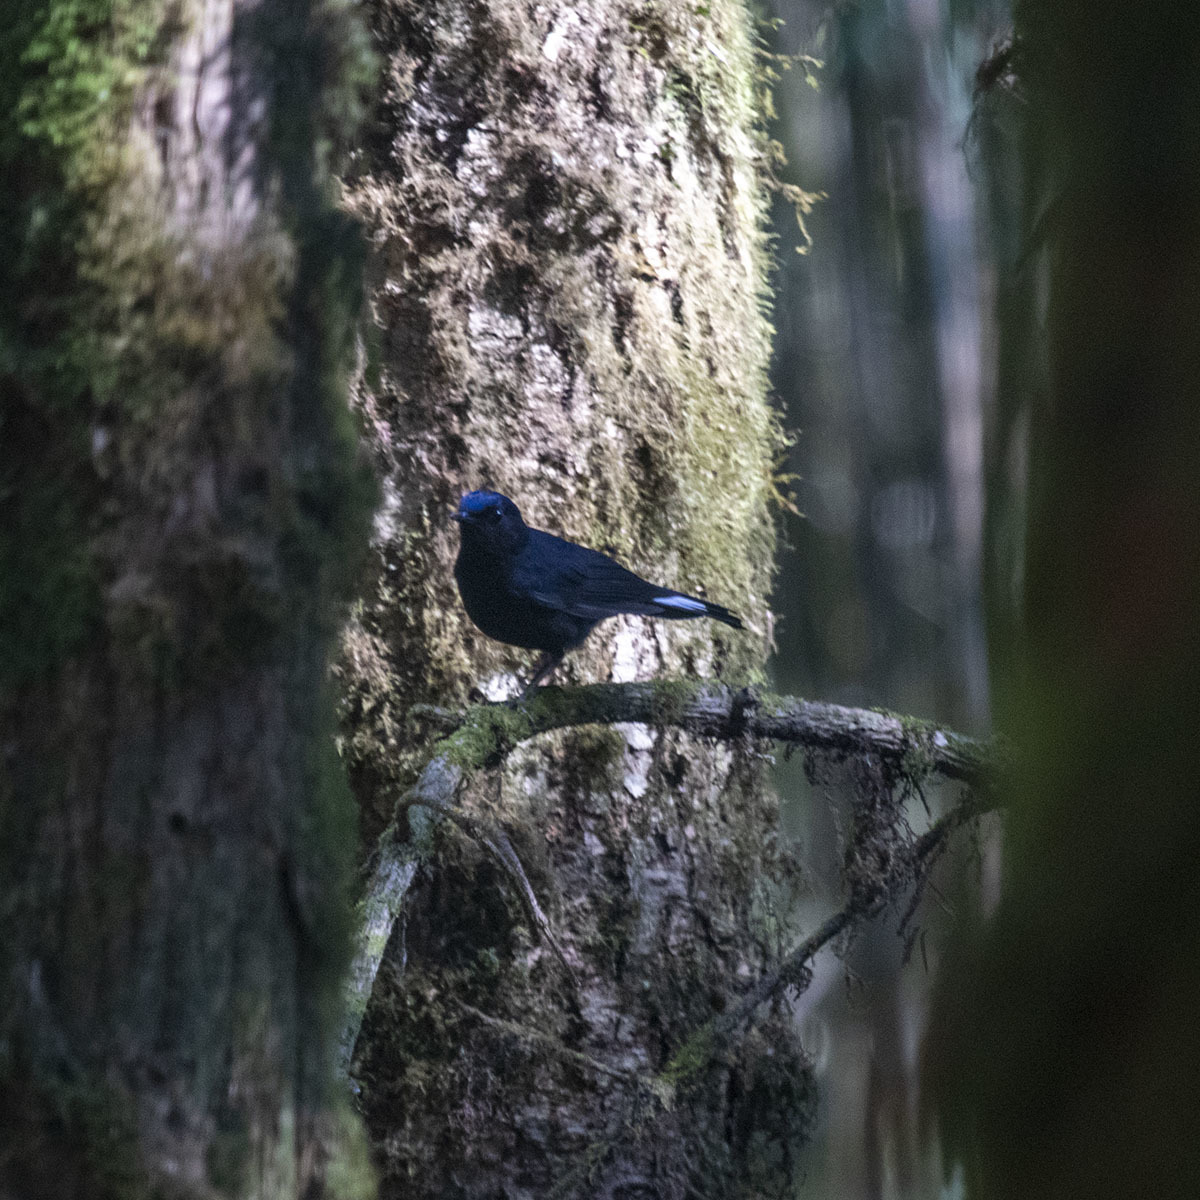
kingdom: Animalia
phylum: Chordata
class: Aves
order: Passeriformes
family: Muscicapidae
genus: Myiomela
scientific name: Myiomela leucura
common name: White-tailed robin
